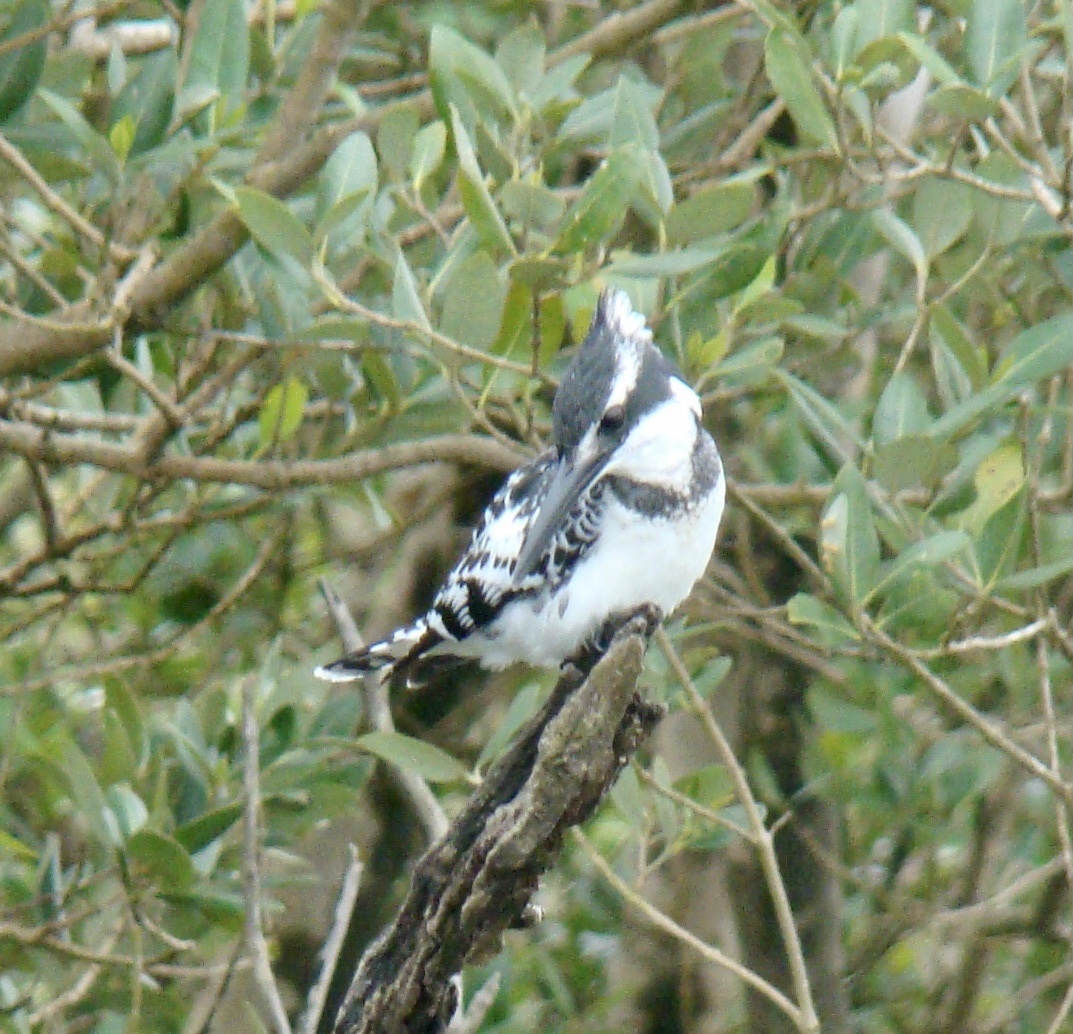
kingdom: Animalia
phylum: Chordata
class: Aves
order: Coraciiformes
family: Alcedinidae
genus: Ceryle
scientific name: Ceryle rudis
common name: Pied kingfisher
